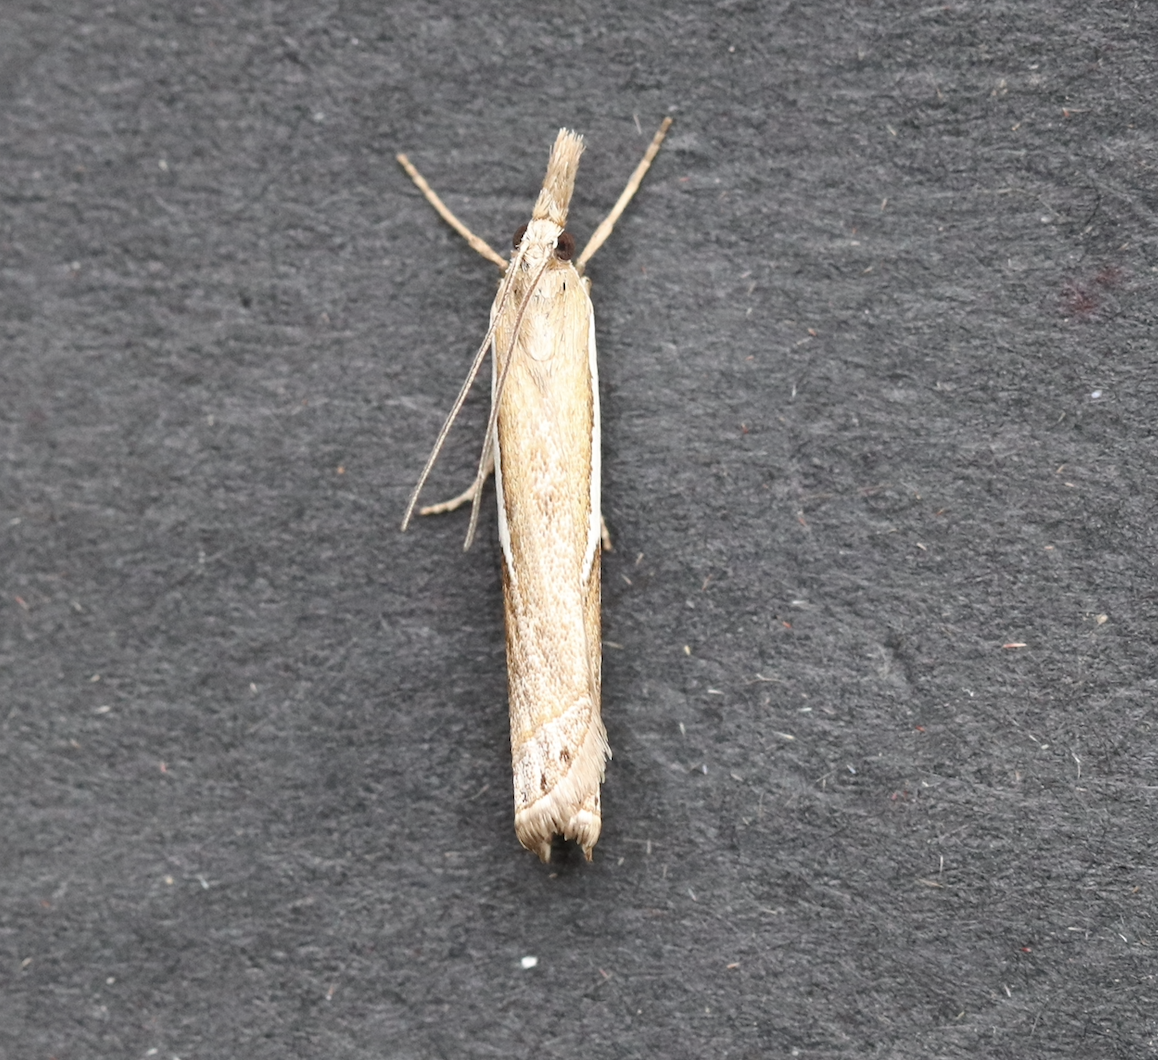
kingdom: Animalia
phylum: Arthropoda
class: Insecta
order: Lepidoptera
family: Crambidae
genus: Crambus
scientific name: Crambus hamella
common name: Dark grass-veneer
